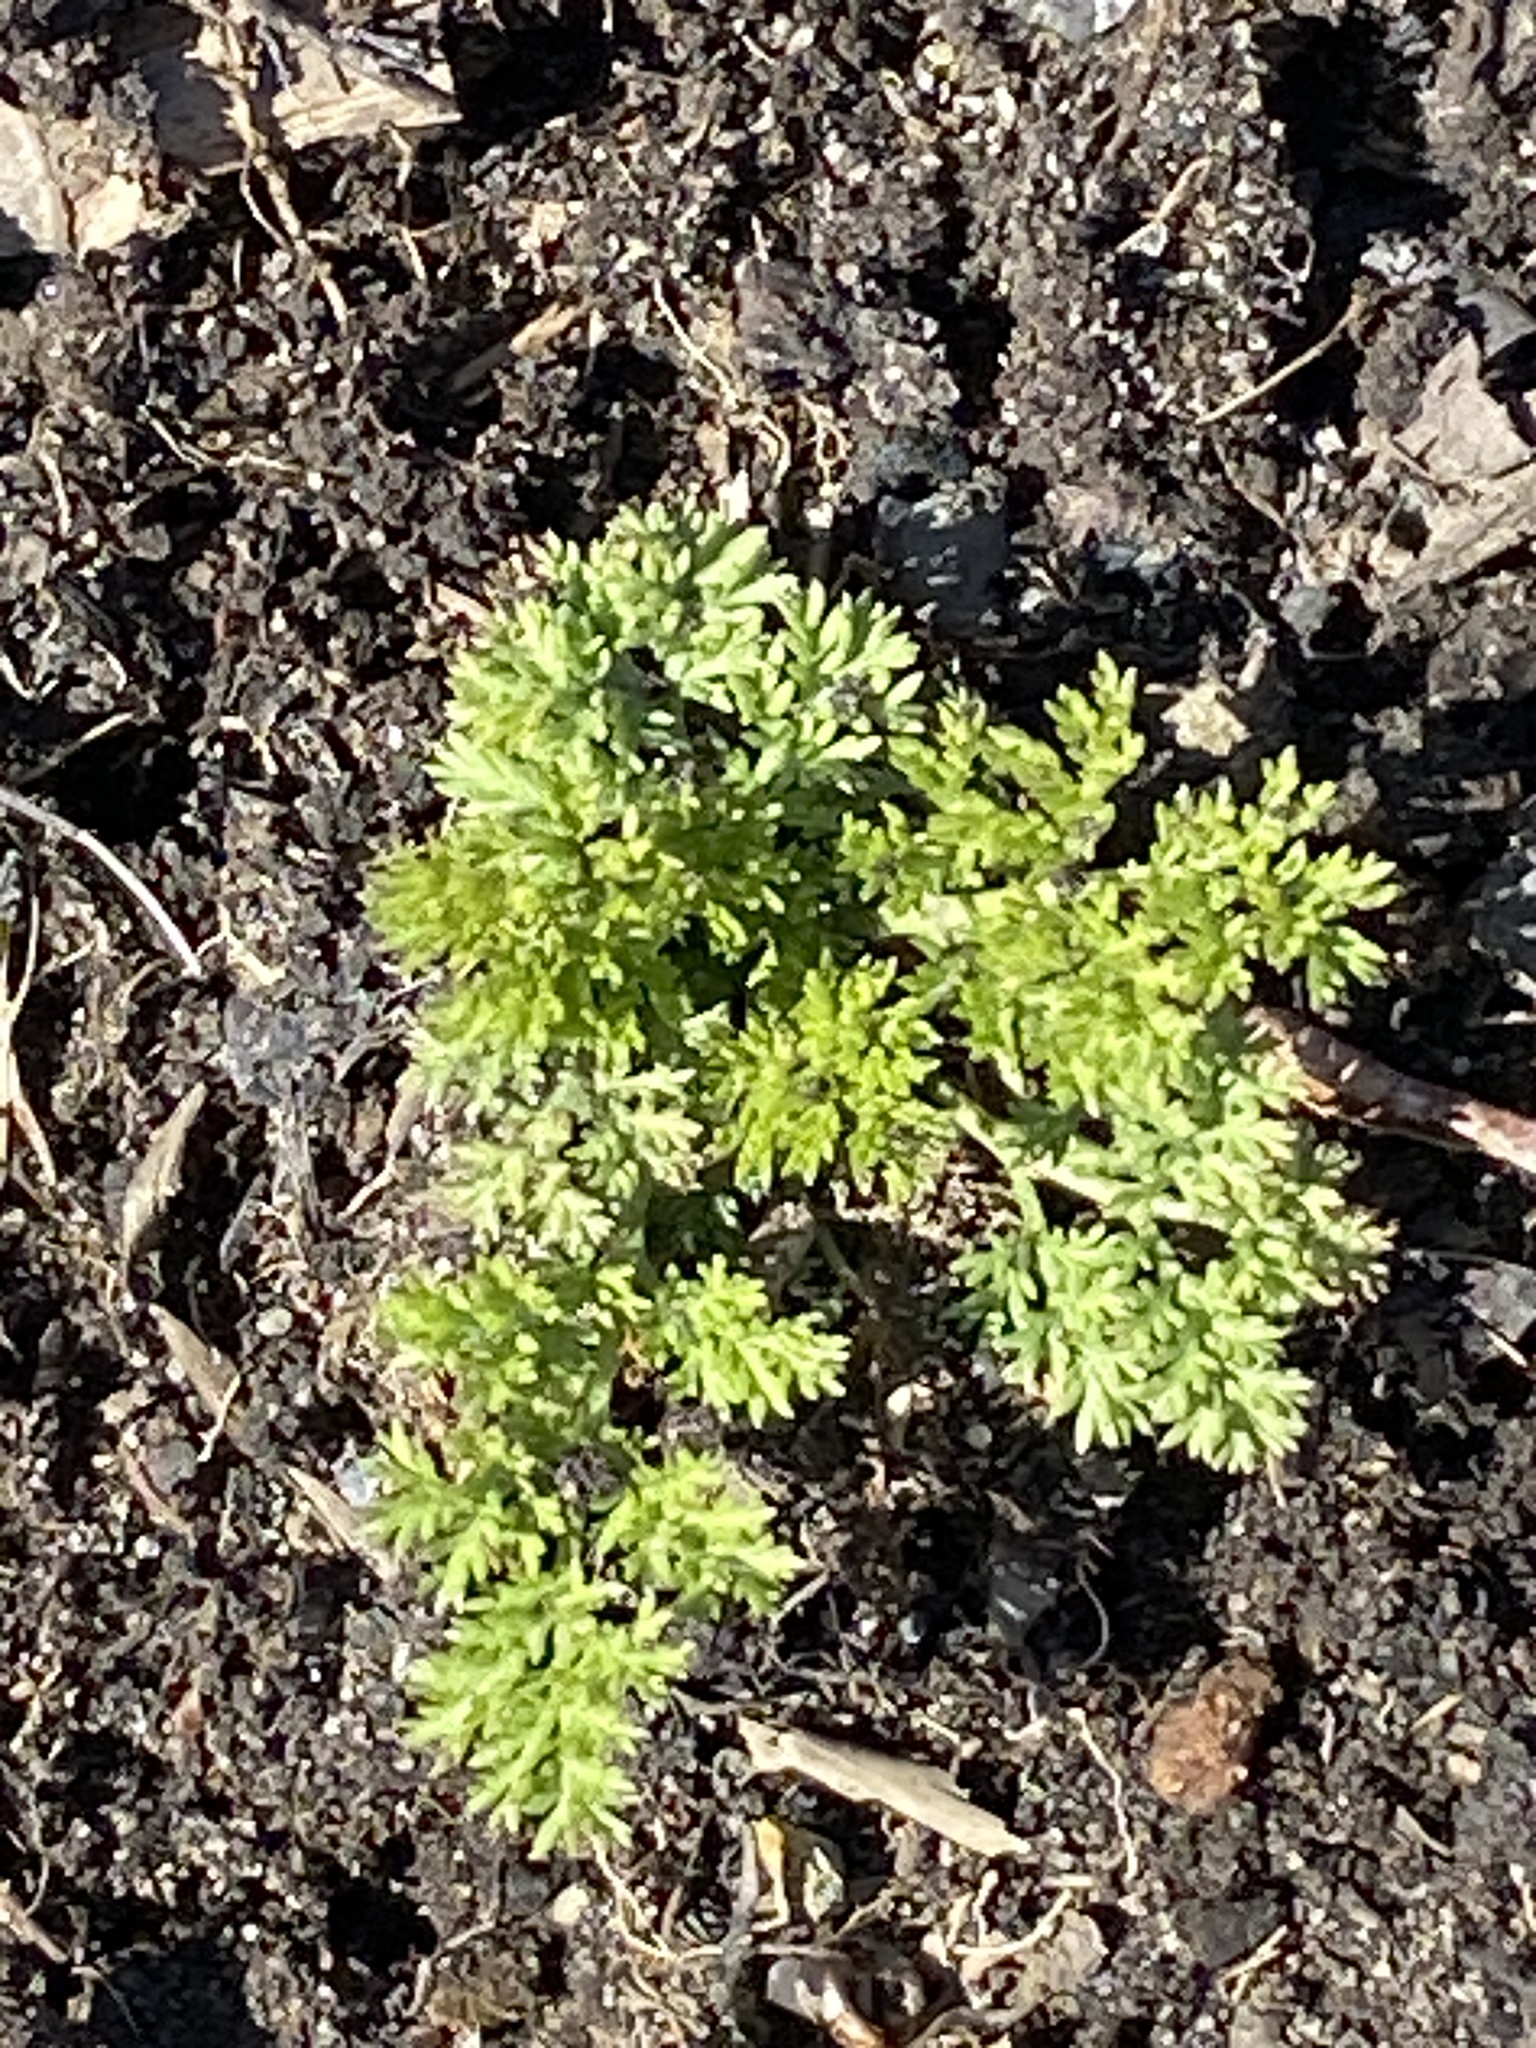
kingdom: Plantae
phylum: Tracheophyta
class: Magnoliopsida
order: Apiales
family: Apiaceae
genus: Daucus
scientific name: Daucus carota
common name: Wild carrot
